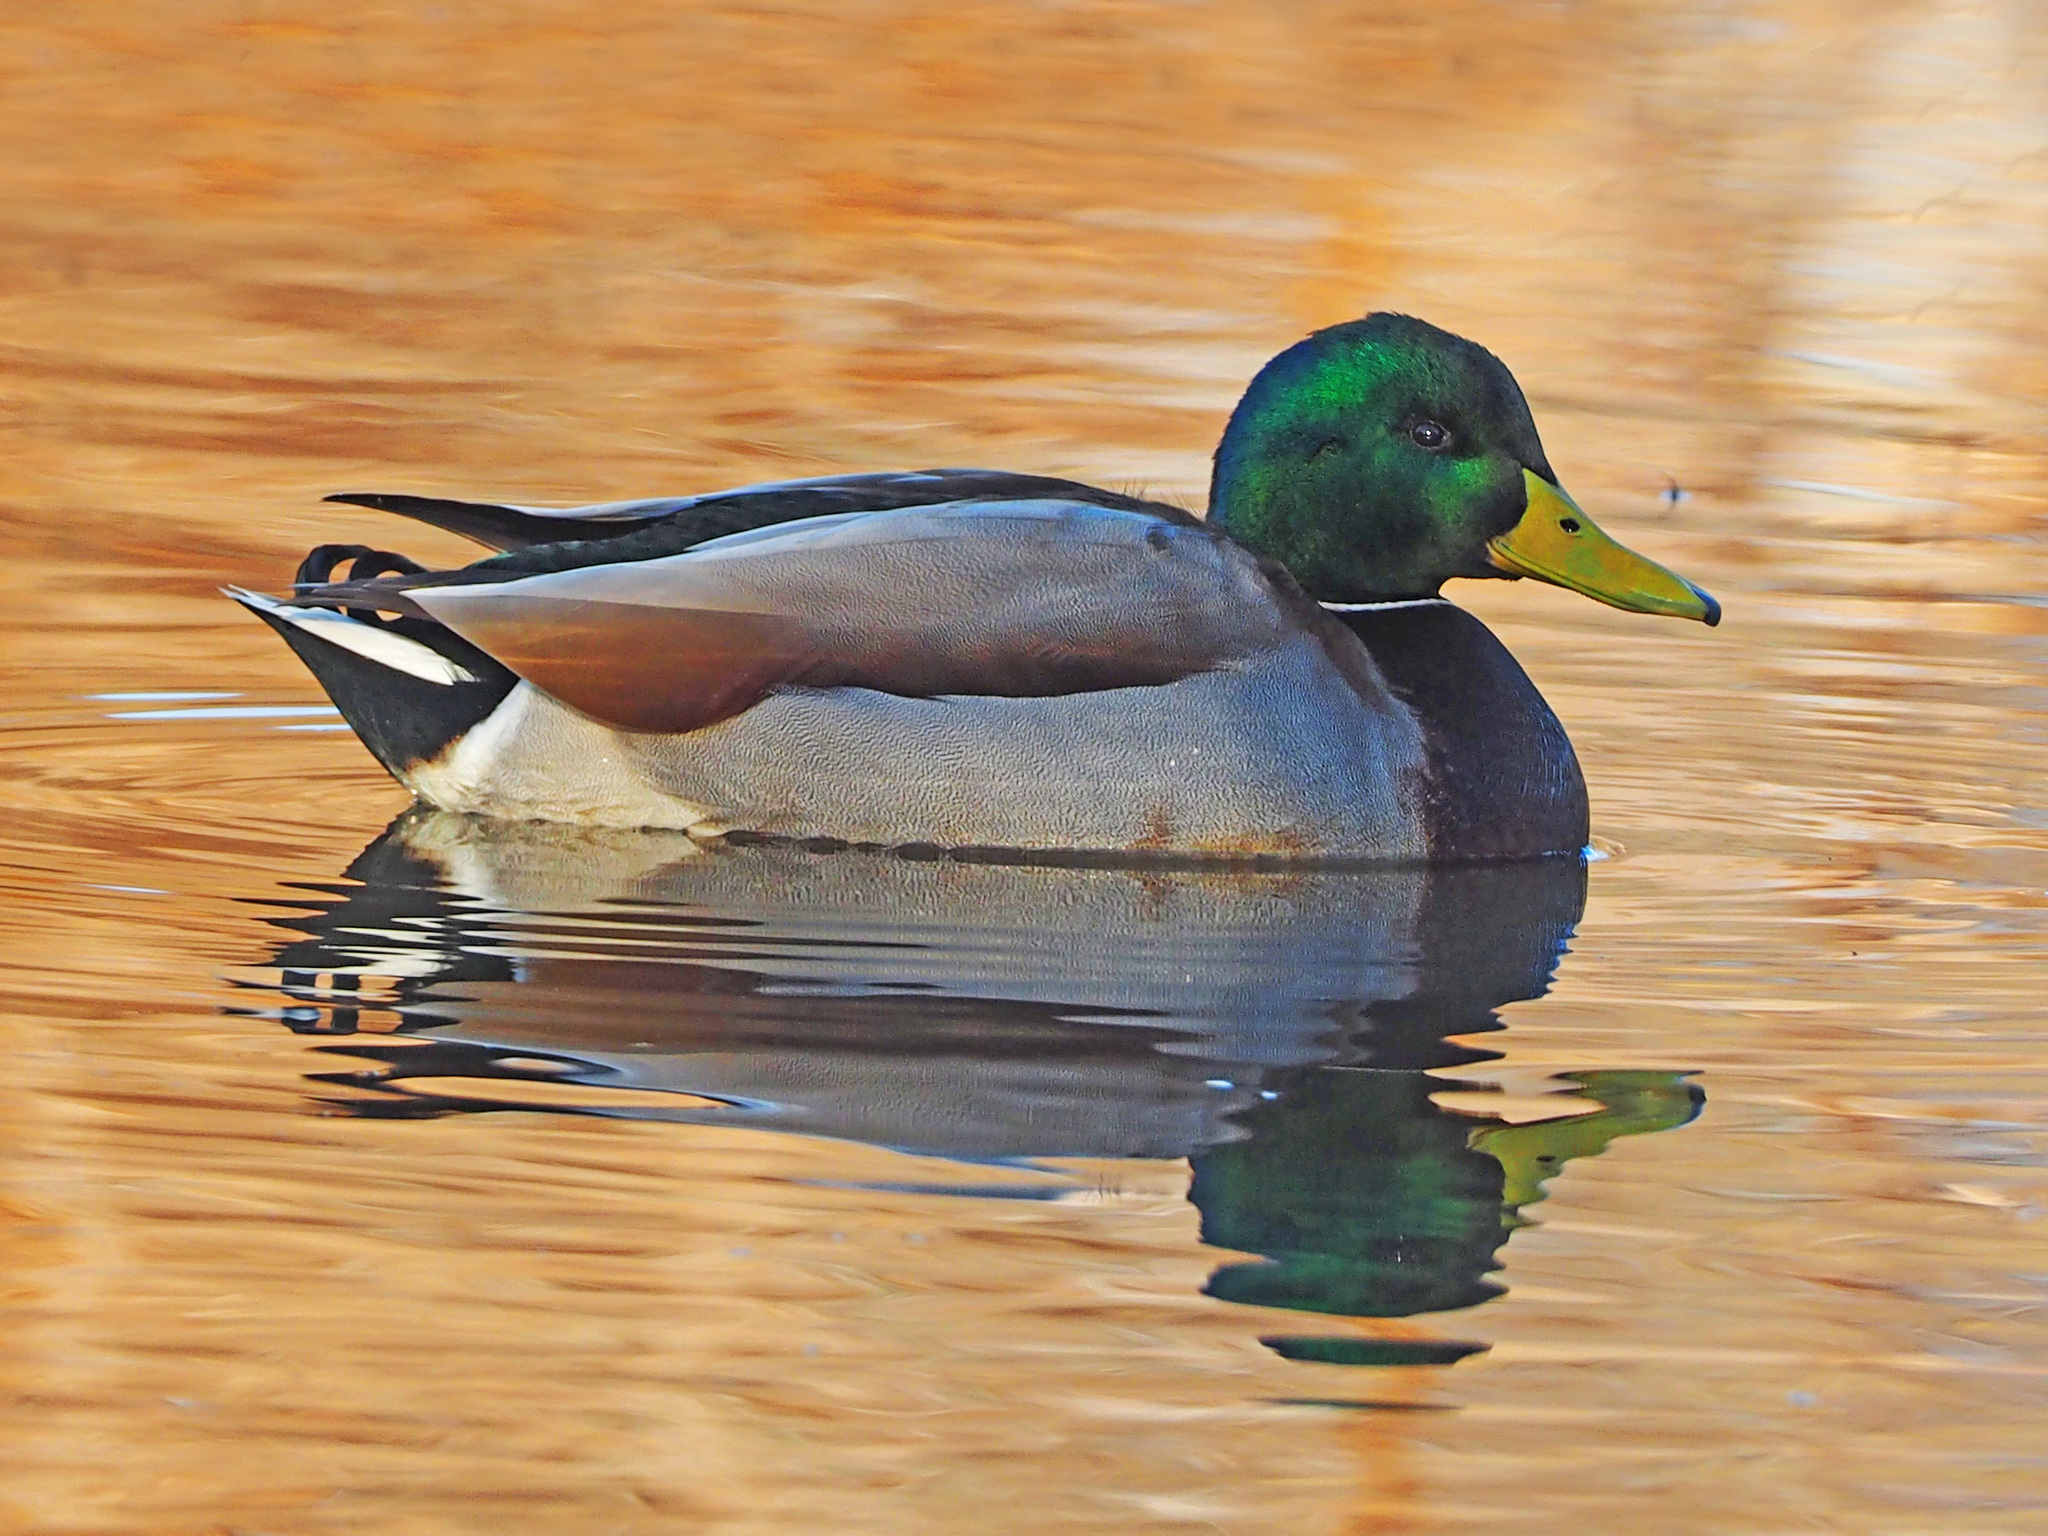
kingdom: Animalia
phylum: Chordata
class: Aves
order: Anseriformes
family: Anatidae
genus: Anas
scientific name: Anas platyrhynchos
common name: Mallard
